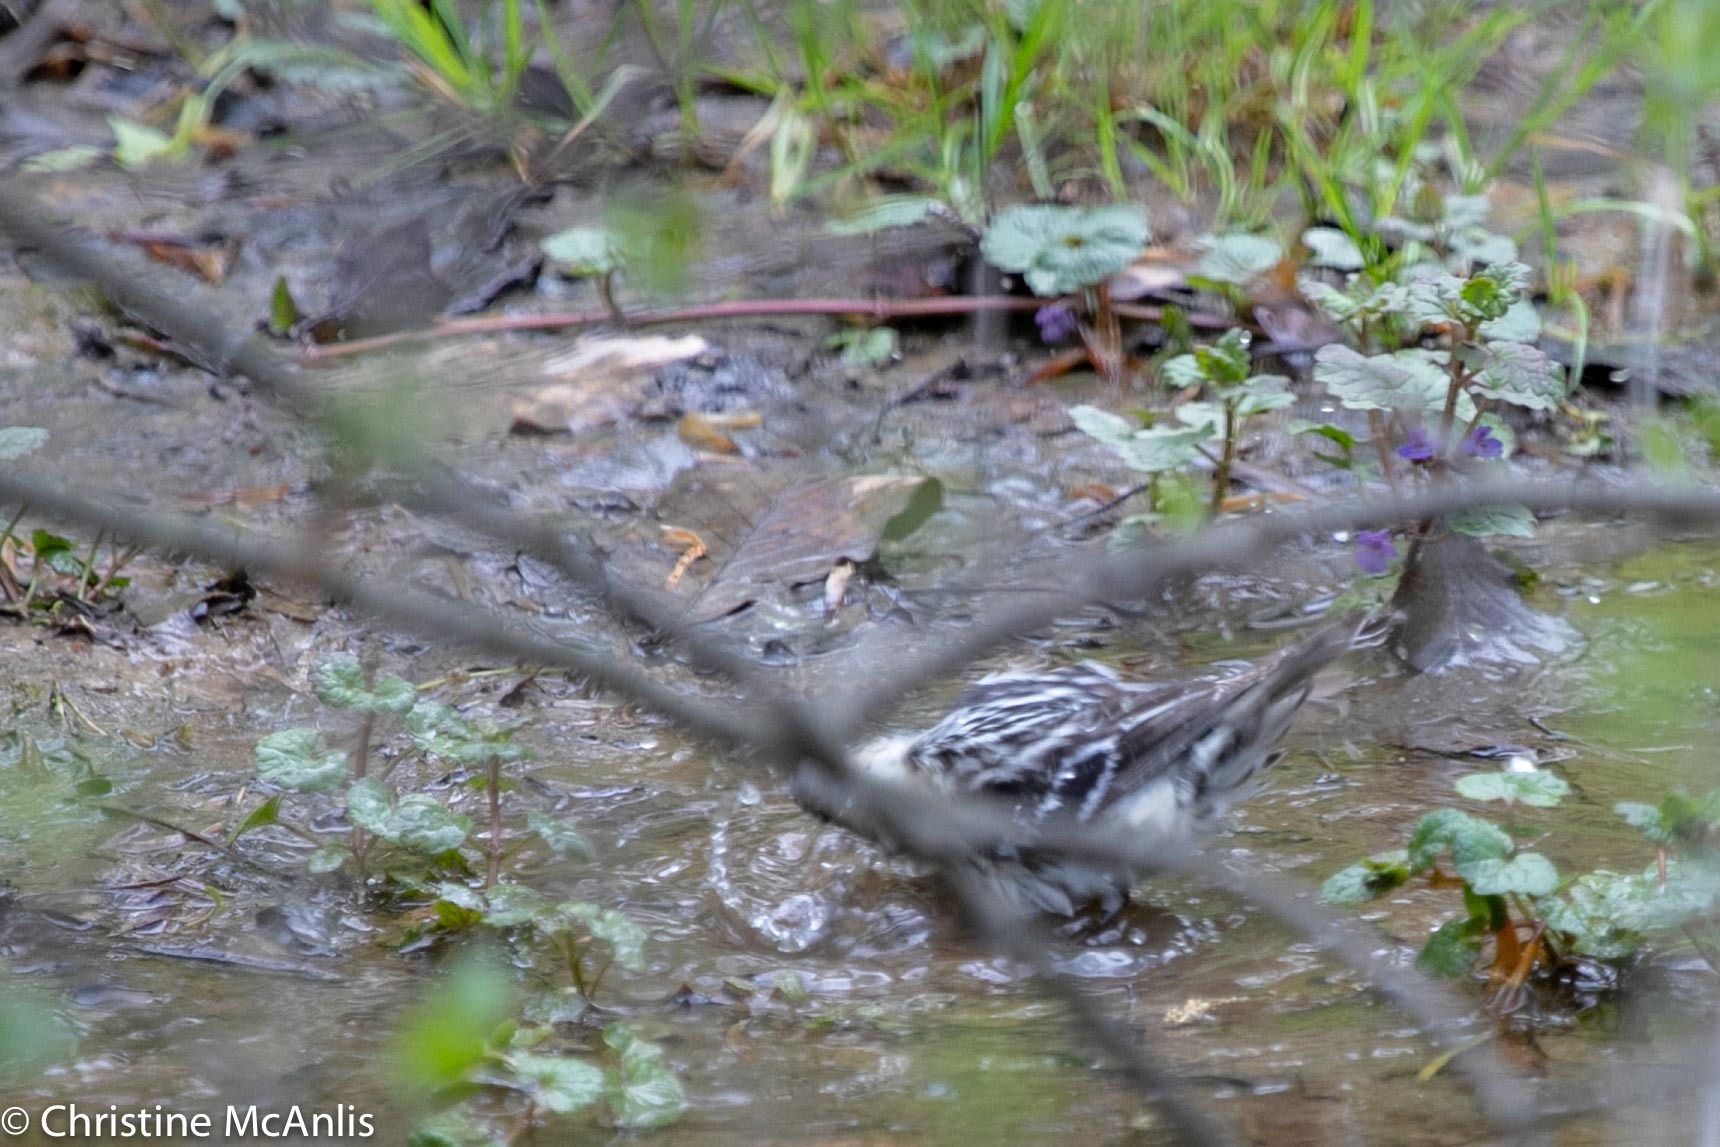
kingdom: Animalia
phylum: Chordata
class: Aves
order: Passeriformes
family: Parulidae
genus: Mniotilta
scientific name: Mniotilta varia
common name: Black-and-white warbler
